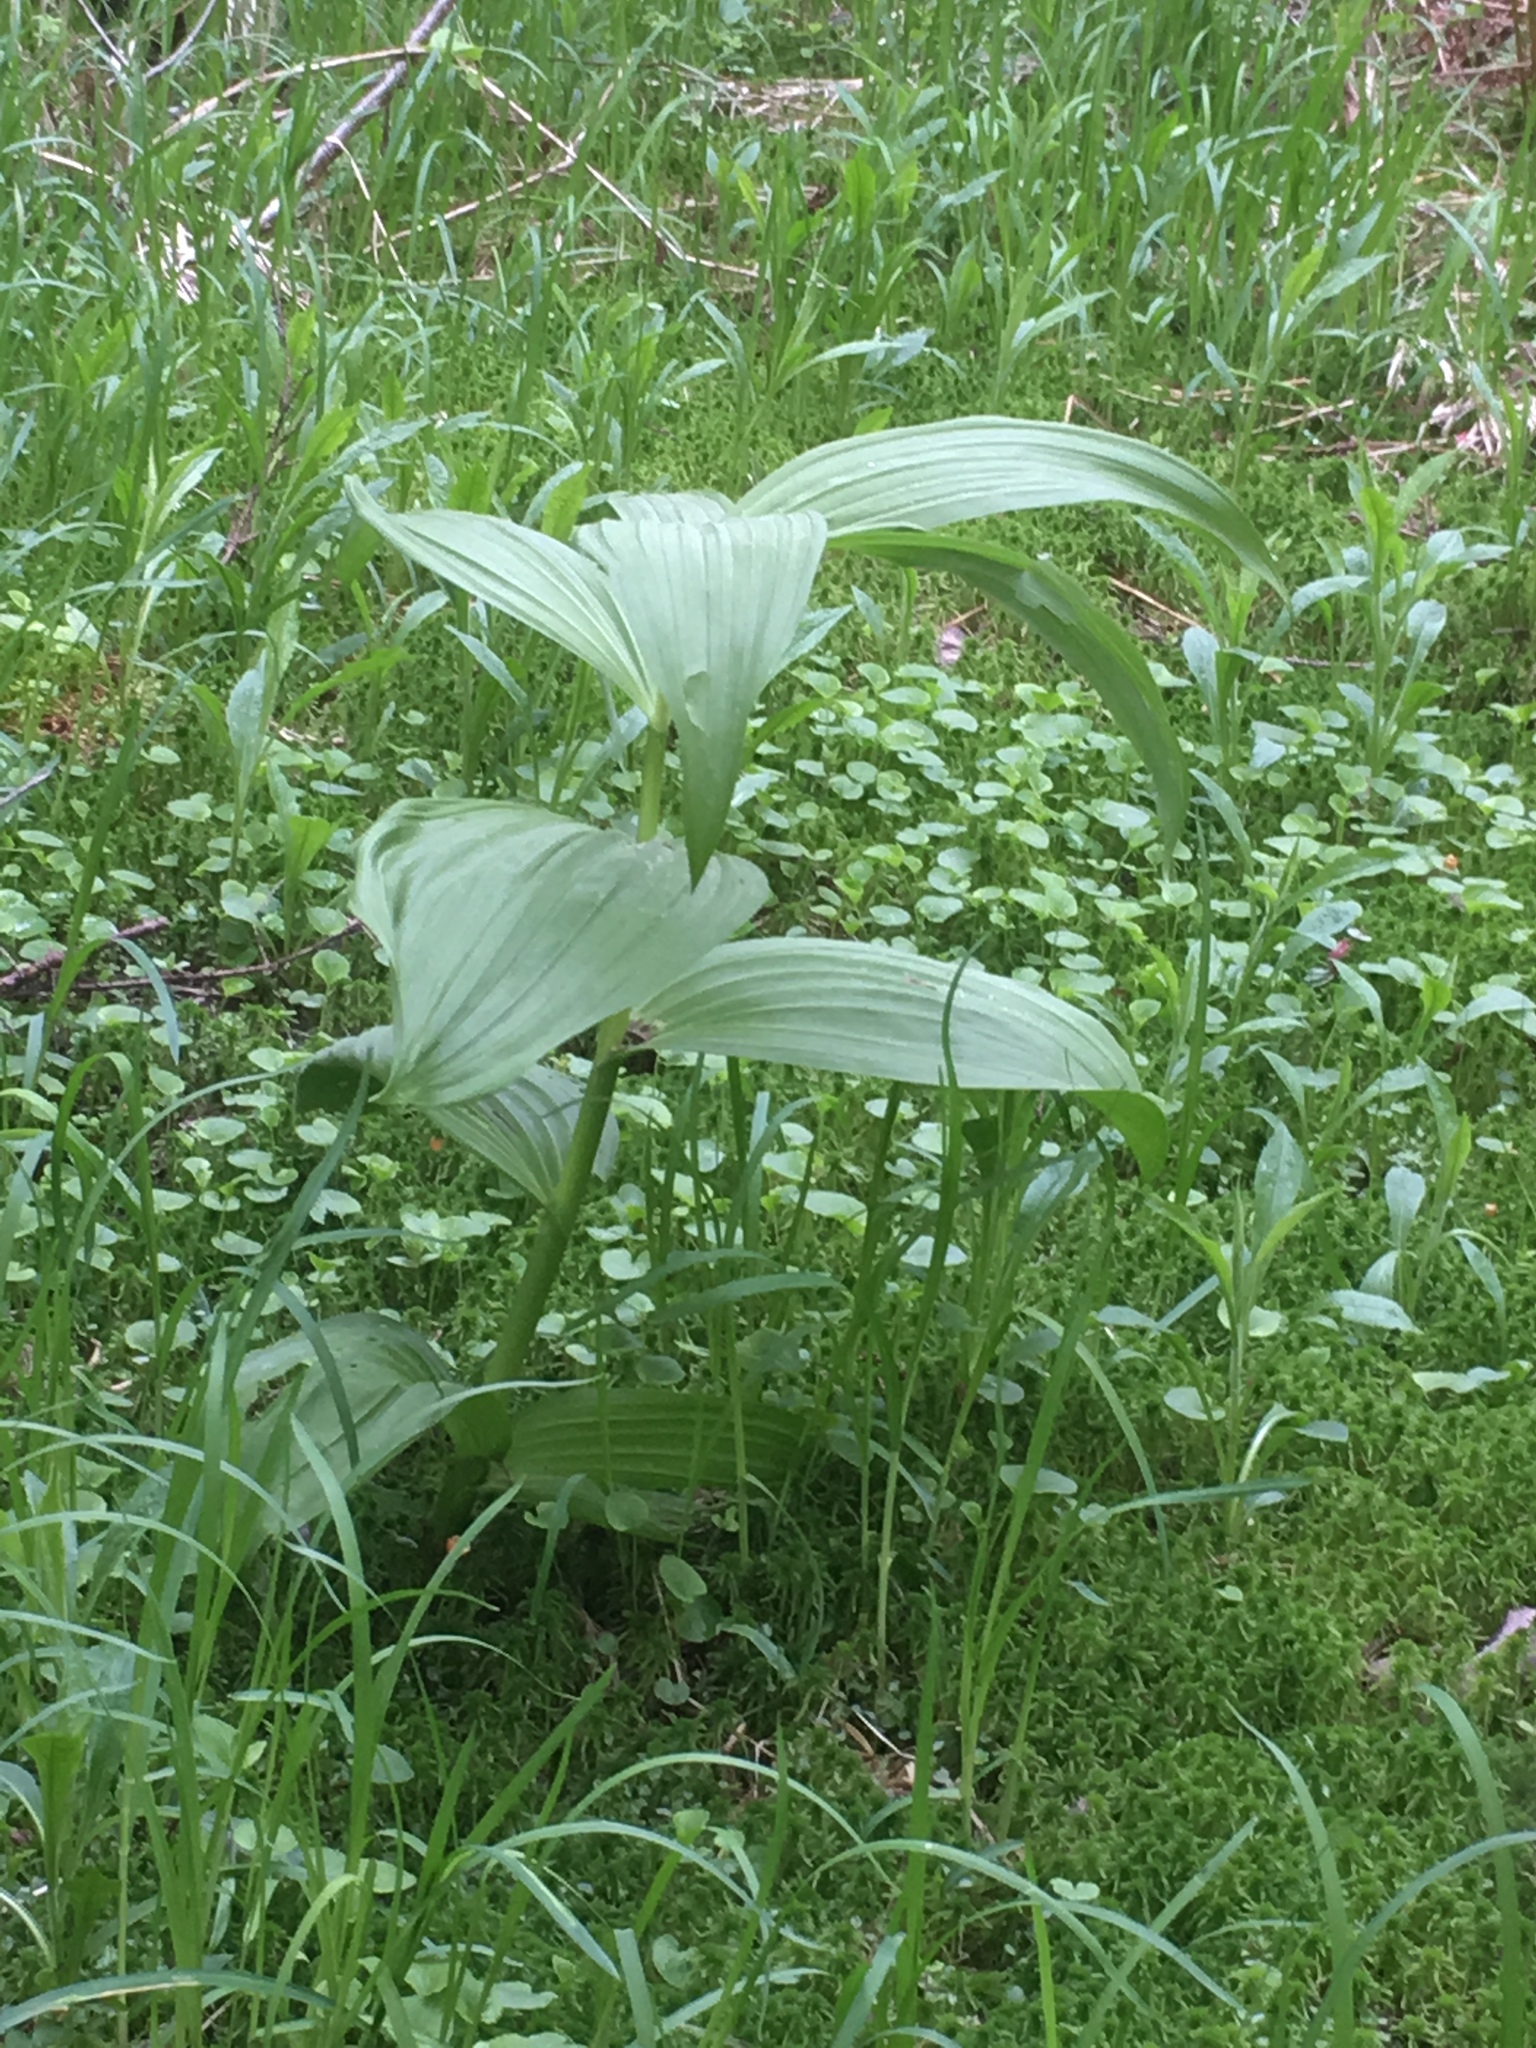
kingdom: Plantae
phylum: Tracheophyta
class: Liliopsida
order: Liliales
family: Melanthiaceae
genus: Veratrum
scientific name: Veratrum viride
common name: American false hellebore
